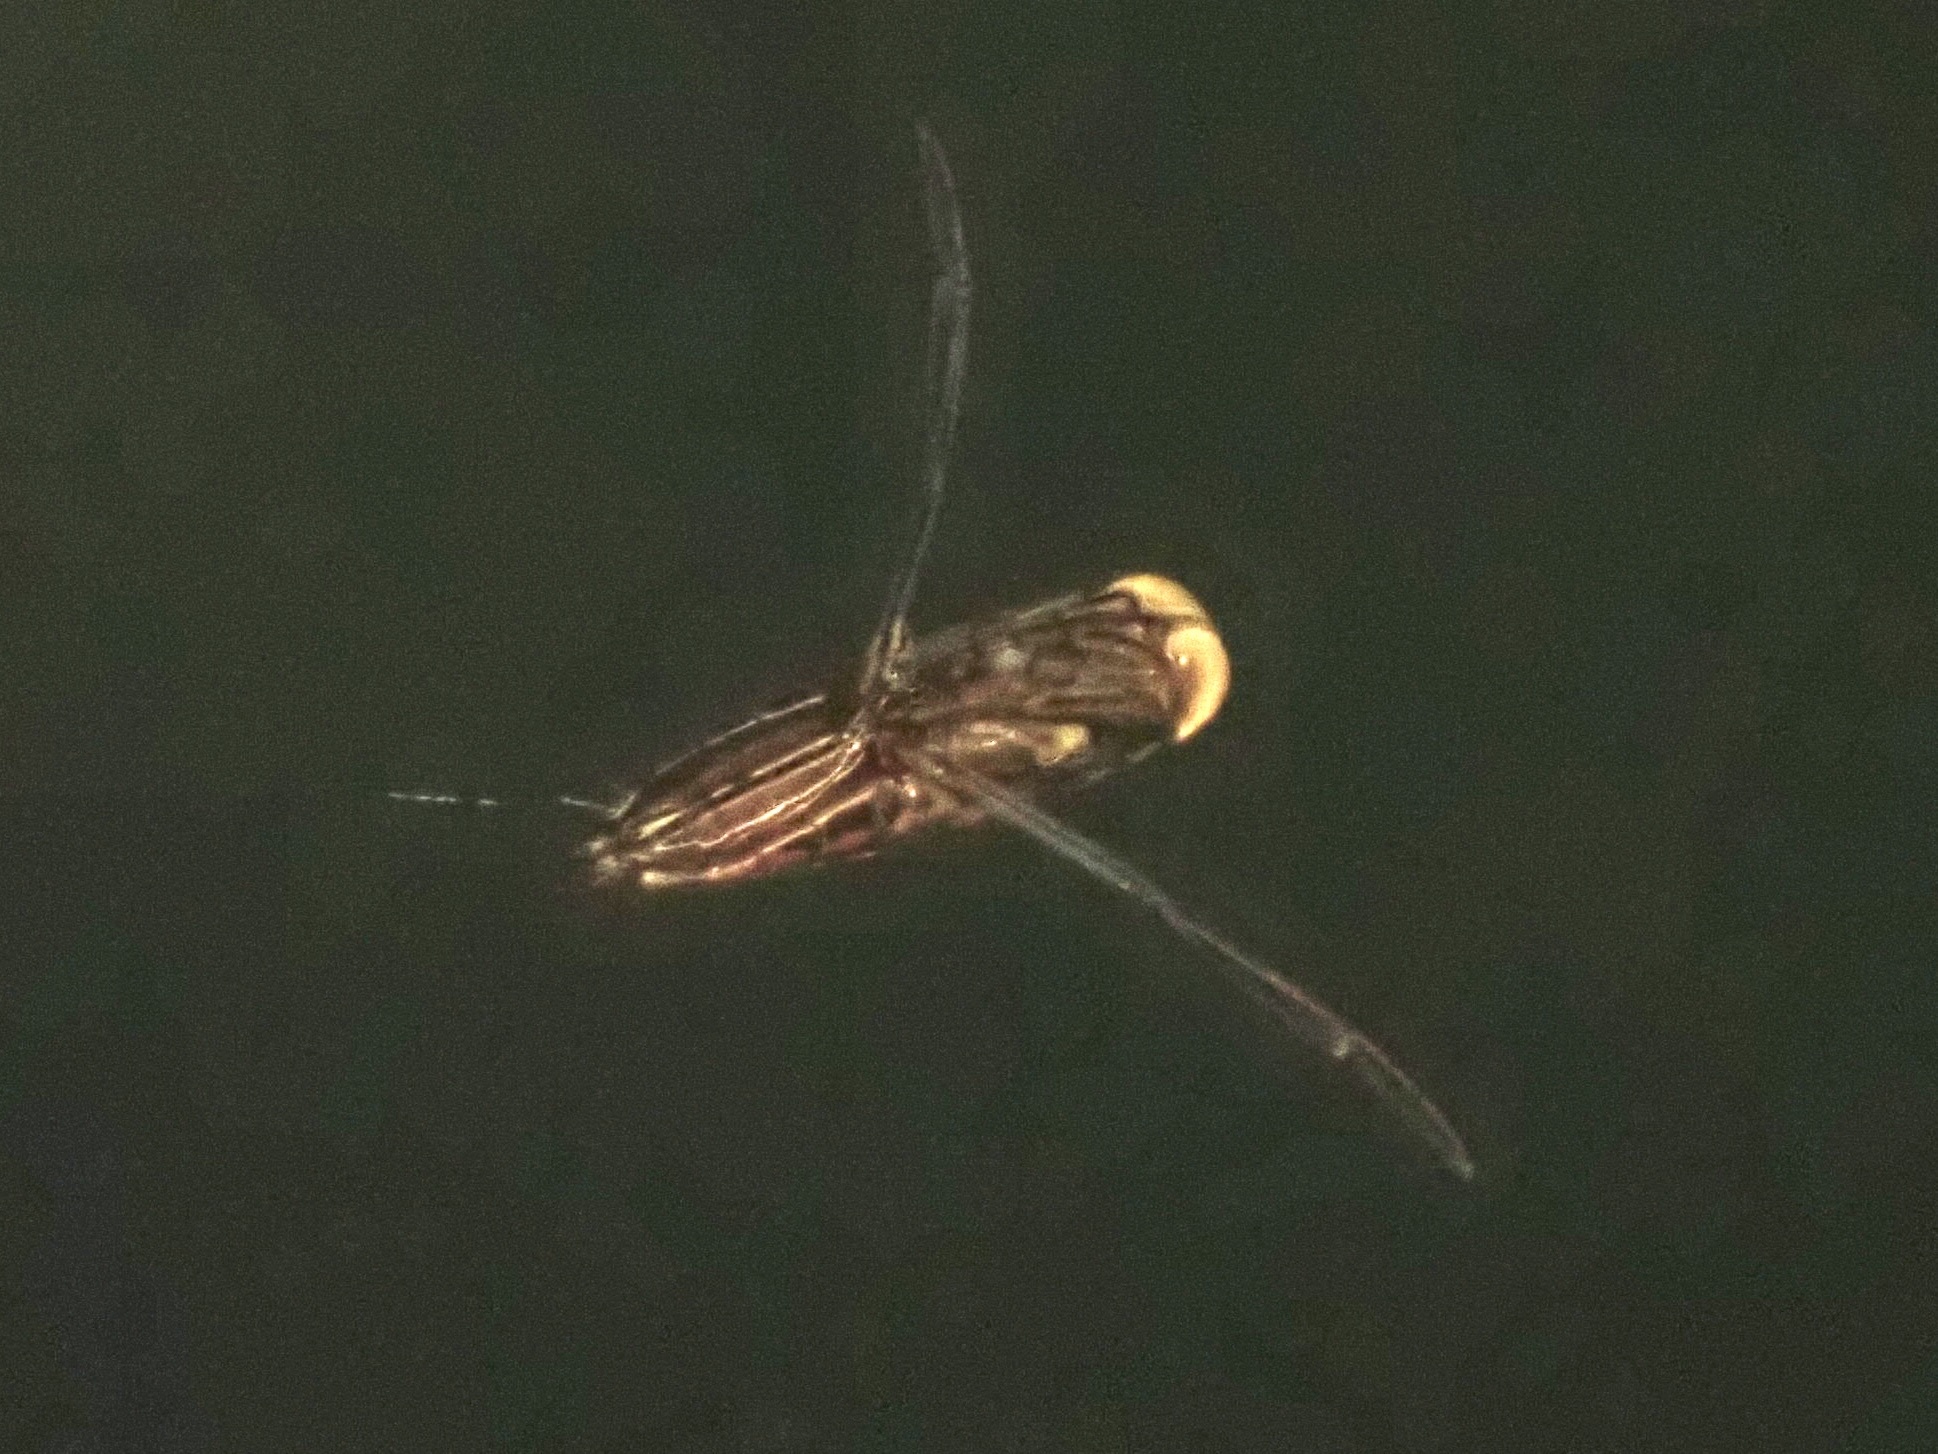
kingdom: Animalia
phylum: Arthropoda
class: Insecta
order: Hemiptera
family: Notonectidae
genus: Buenoa
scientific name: Buenoa
